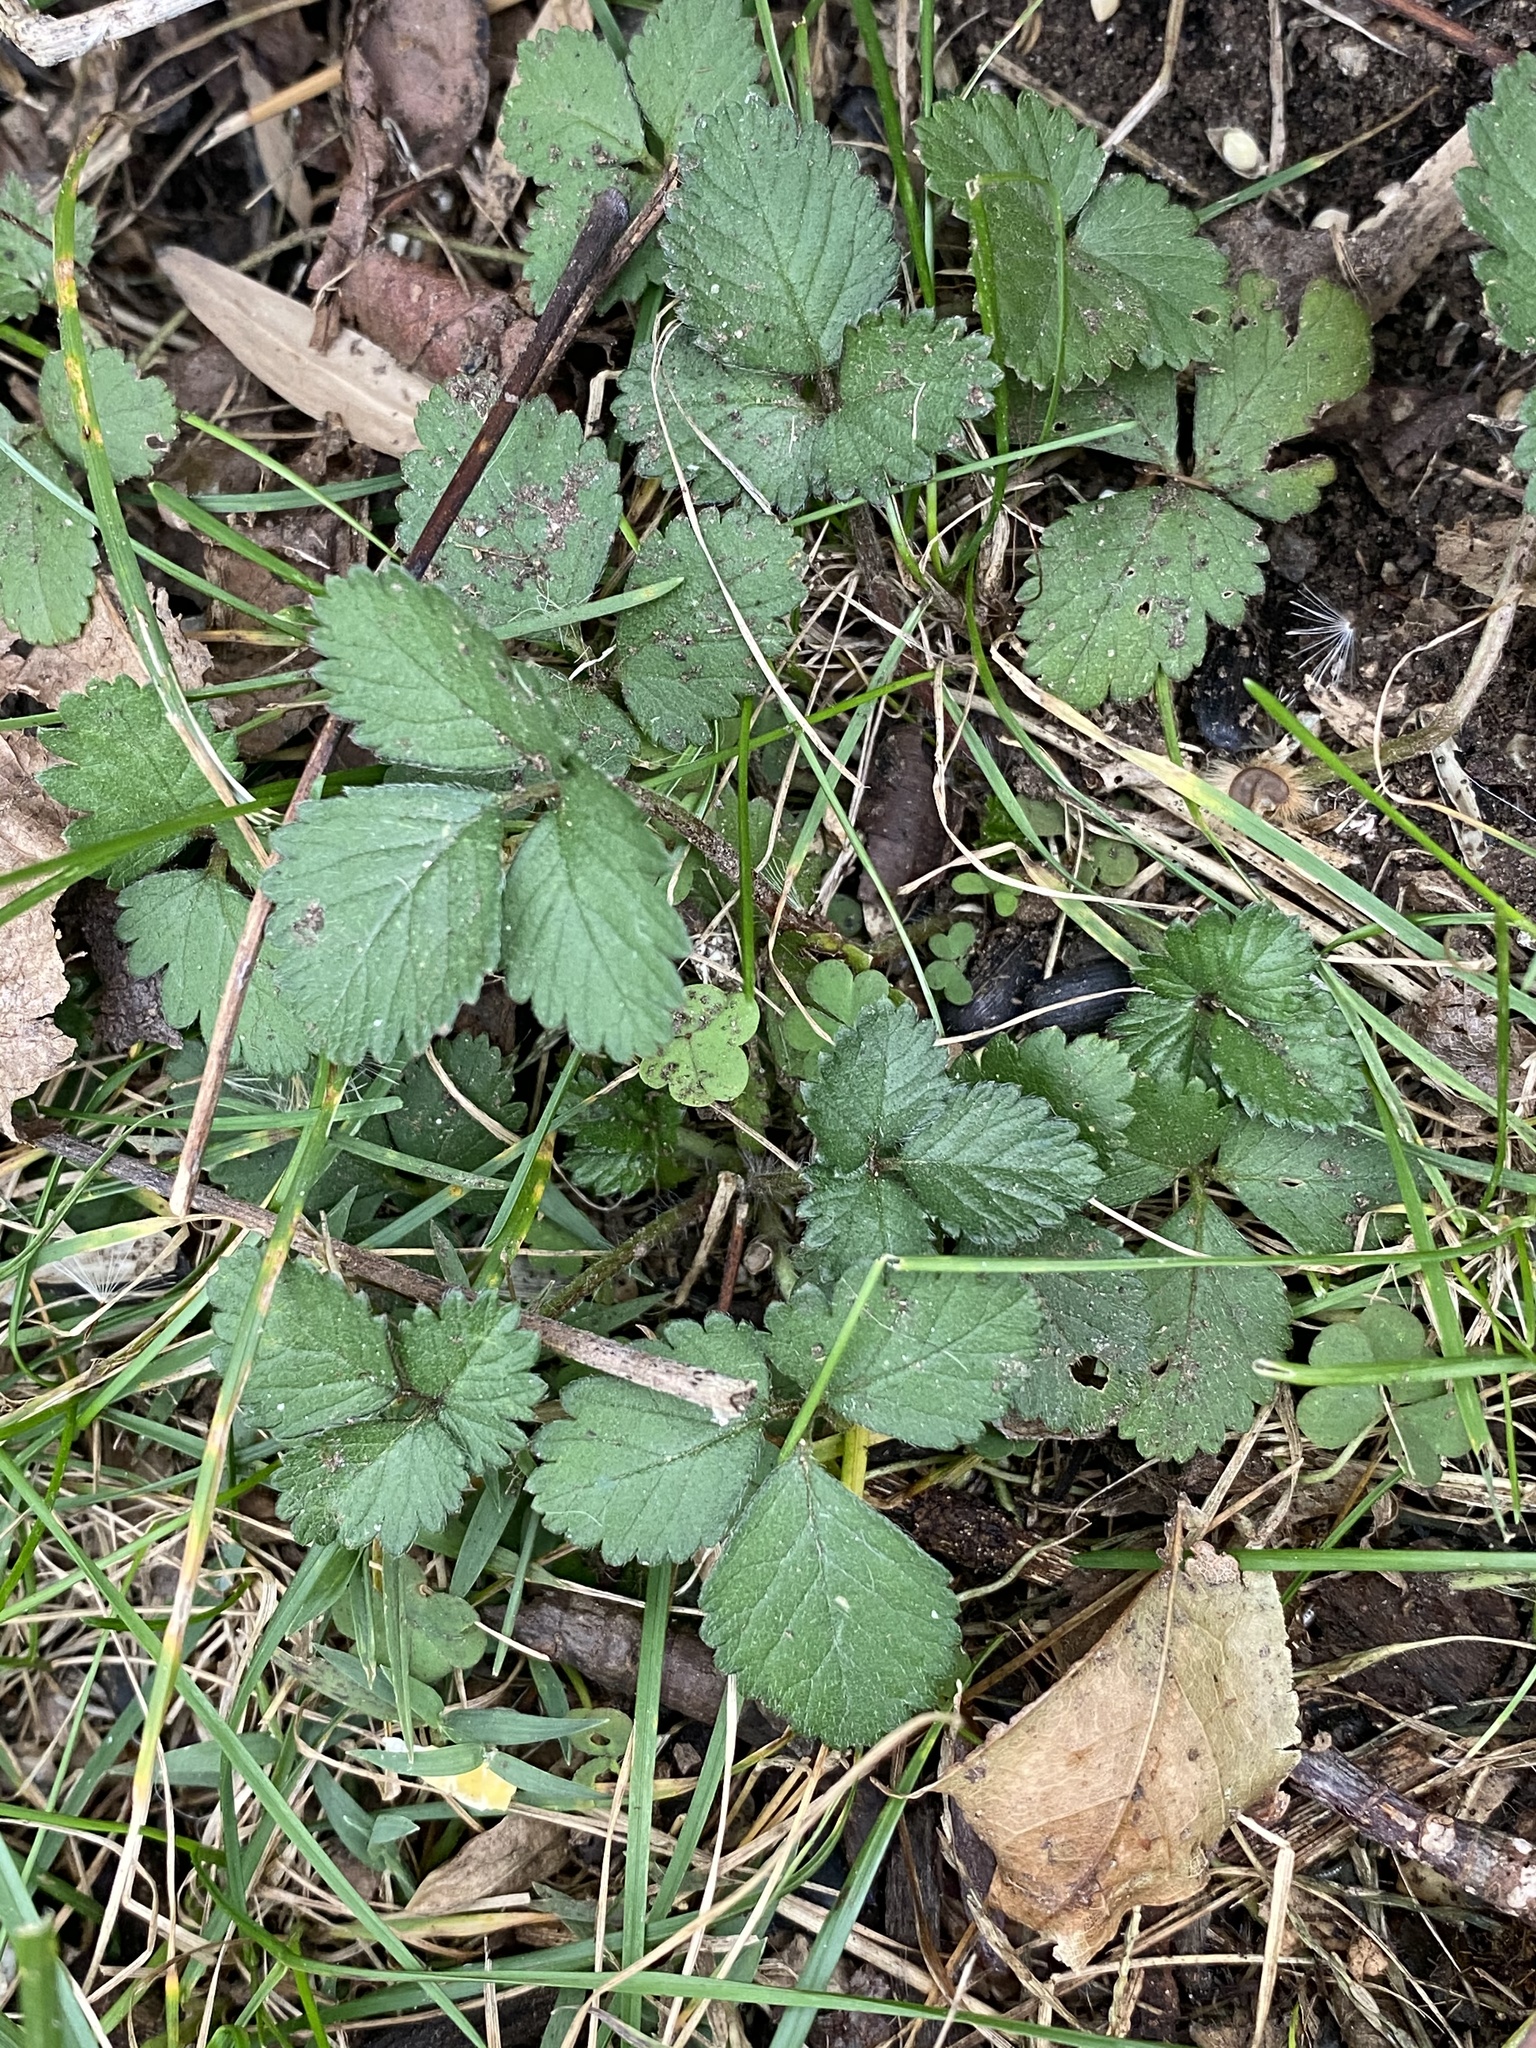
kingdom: Plantae
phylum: Tracheophyta
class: Magnoliopsida
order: Rosales
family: Rosaceae
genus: Potentilla
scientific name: Potentilla indica
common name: Yellow-flowered strawberry
